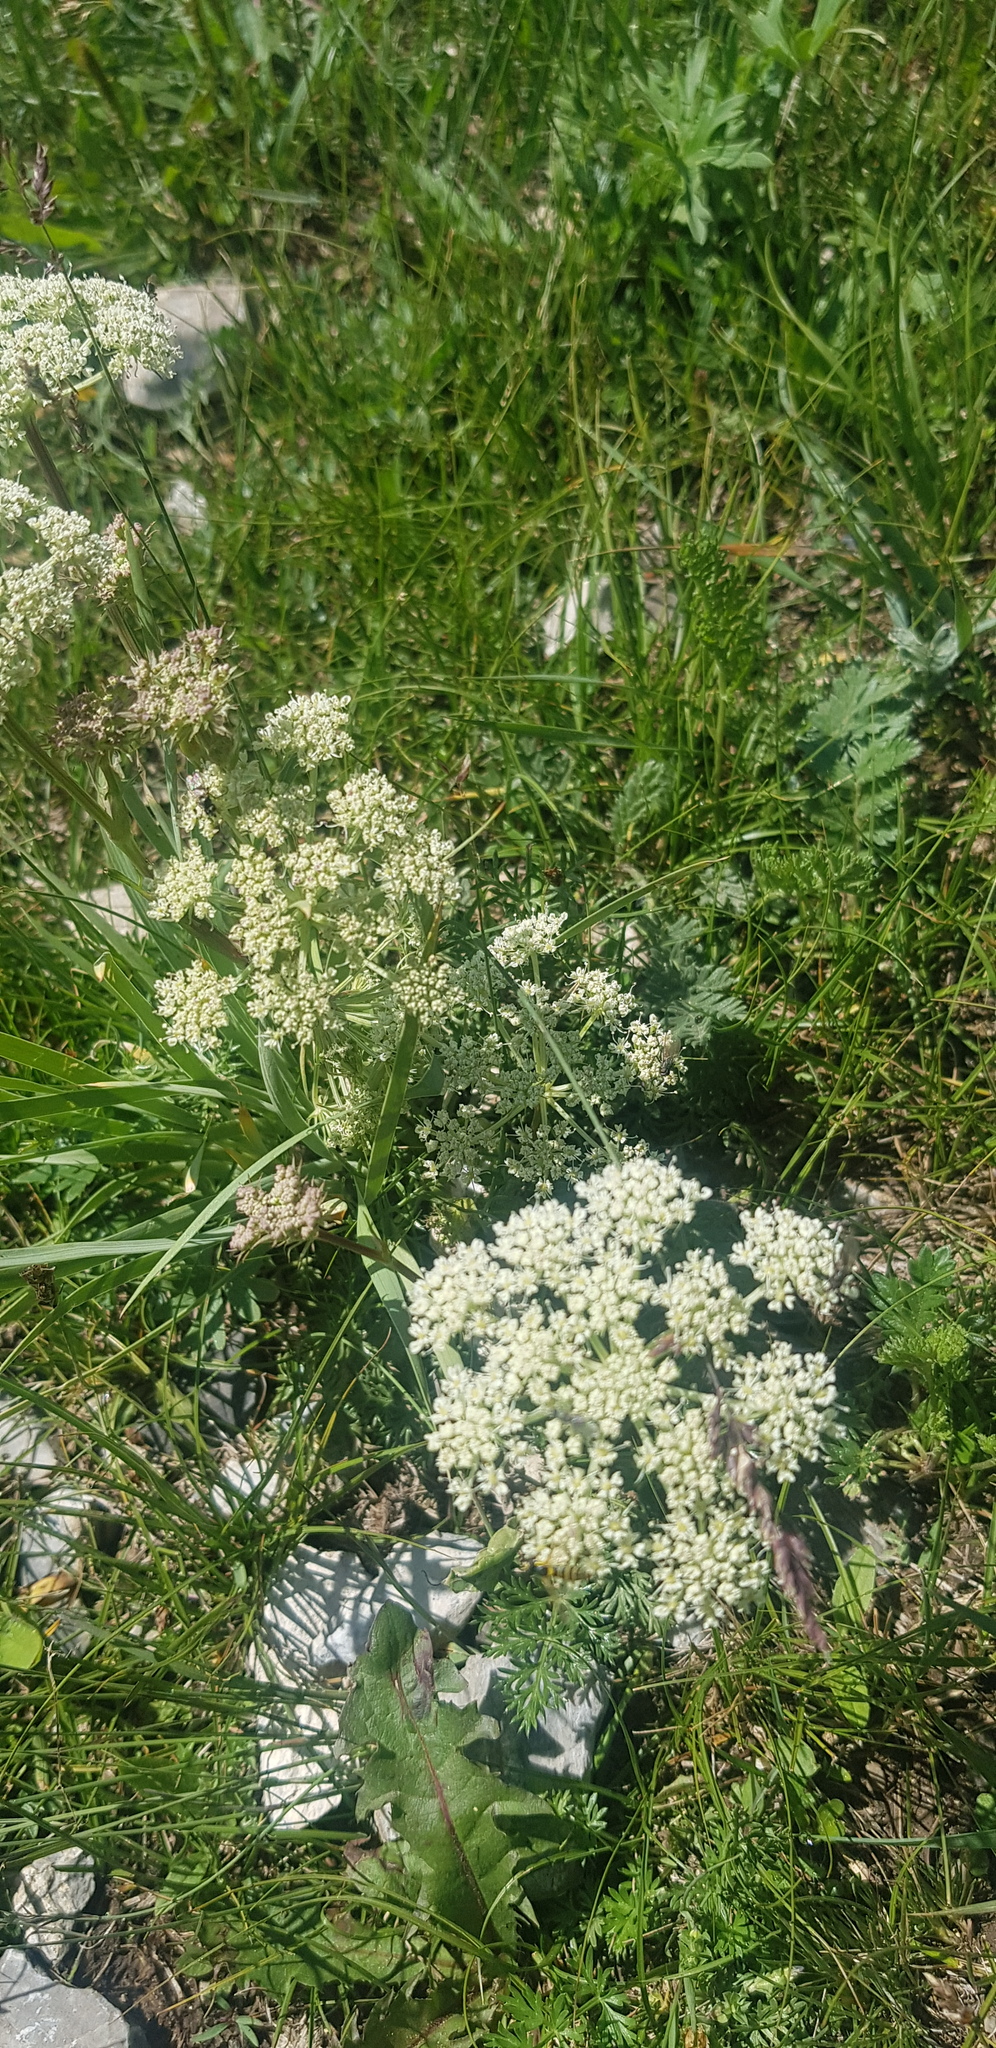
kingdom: Plantae
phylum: Tracheophyta
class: Magnoliopsida
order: Apiales
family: Apiaceae
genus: Seseli
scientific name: Seseli condensatum
